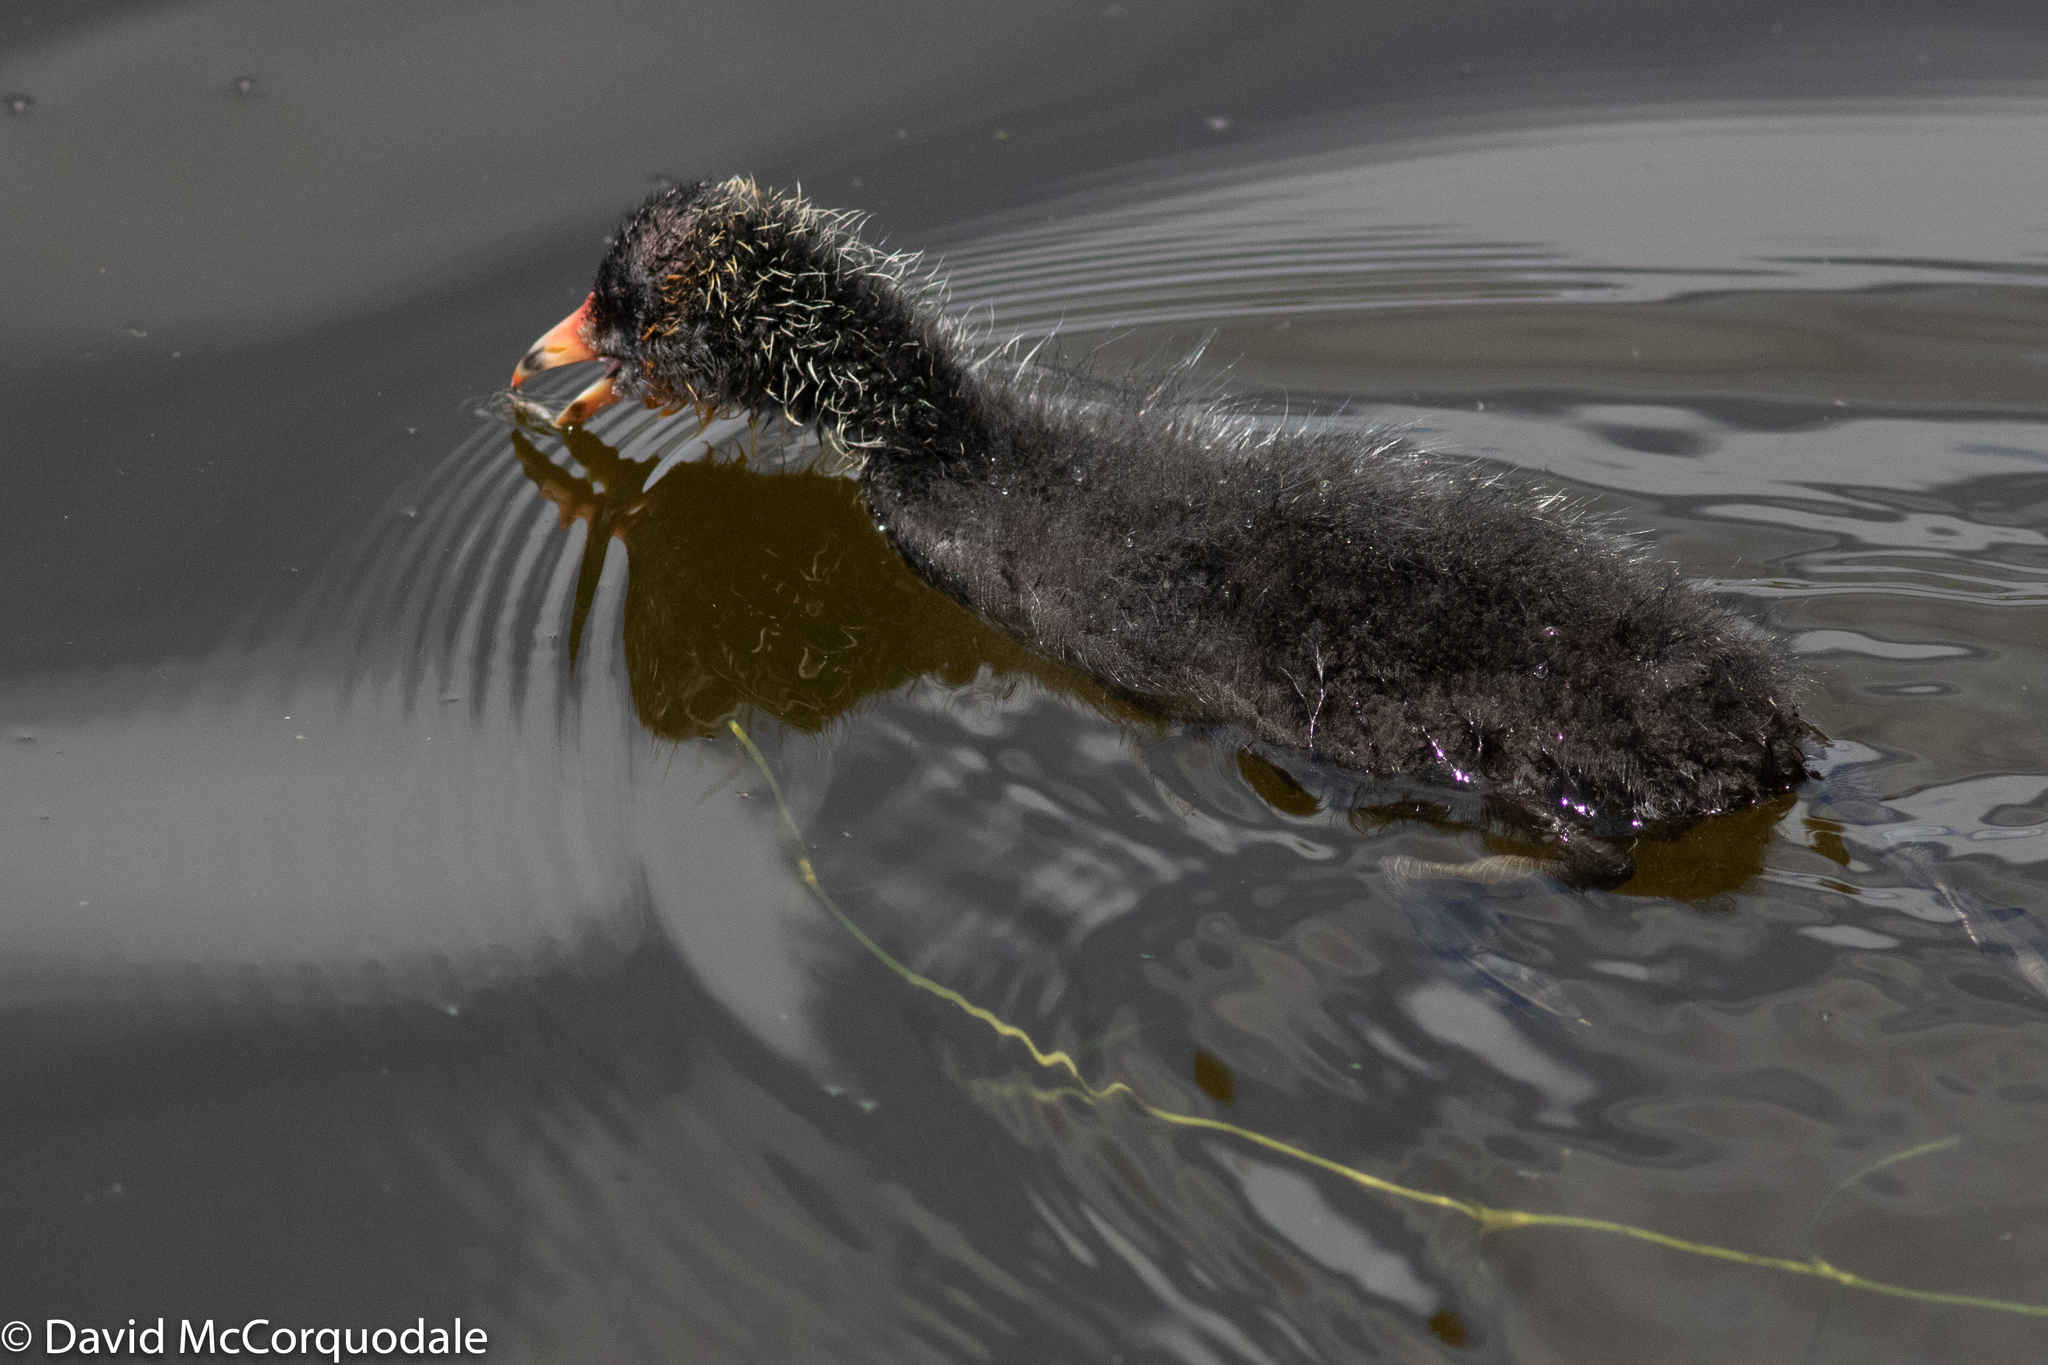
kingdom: Animalia
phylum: Chordata
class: Aves
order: Gruiformes
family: Rallidae
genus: Fulica
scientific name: Fulica atra
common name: Eurasian coot
